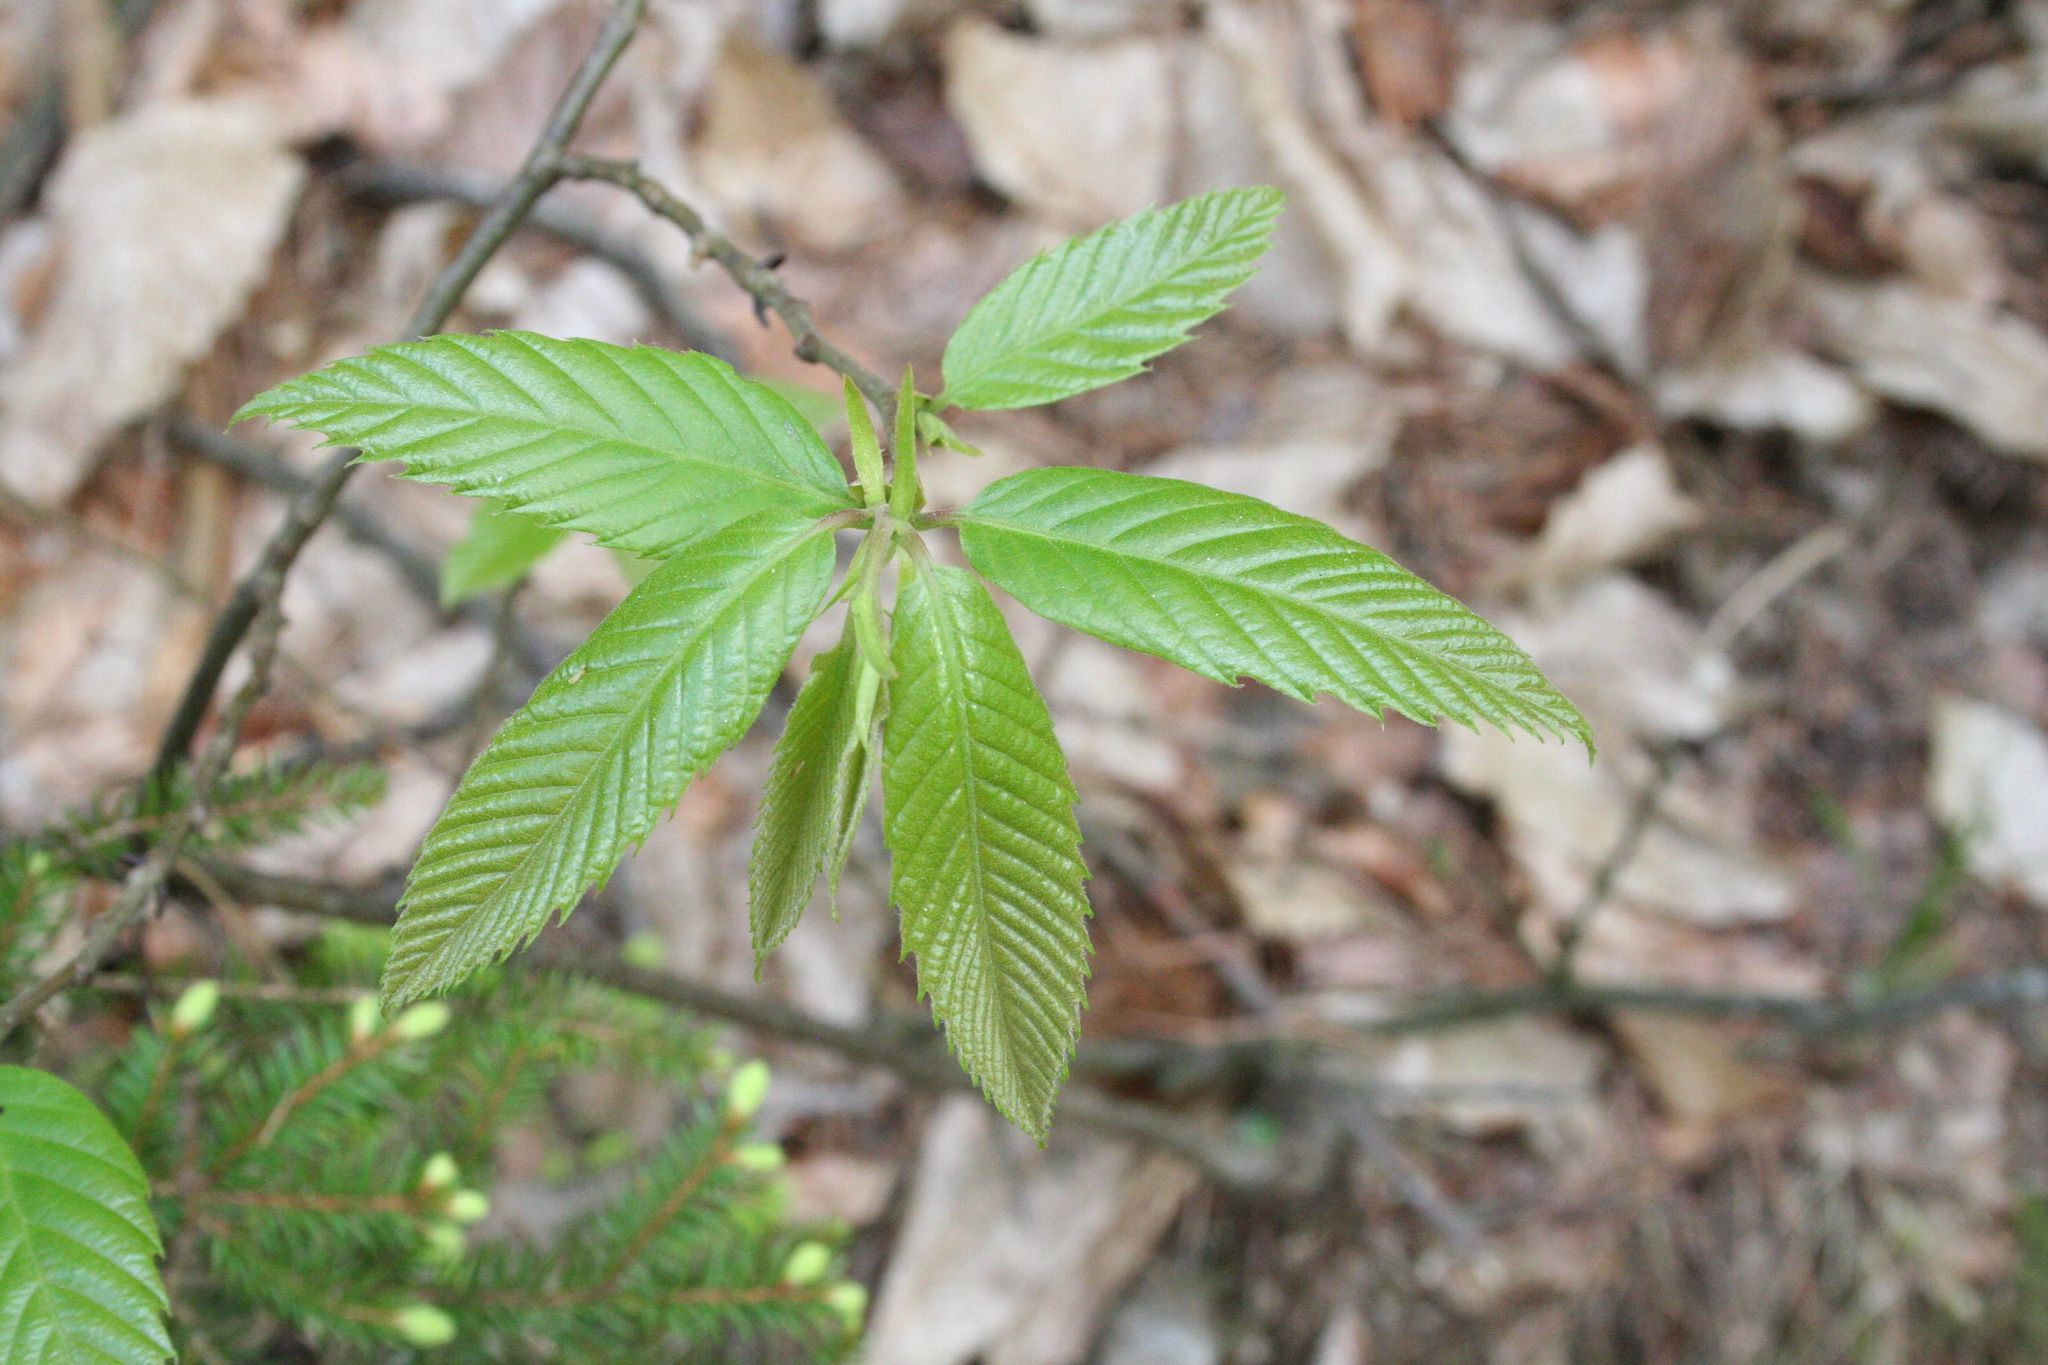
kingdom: Plantae
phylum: Tracheophyta
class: Magnoliopsida
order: Fagales
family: Fagaceae
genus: Castanea
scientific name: Castanea sativa
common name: Sweet chestnut
